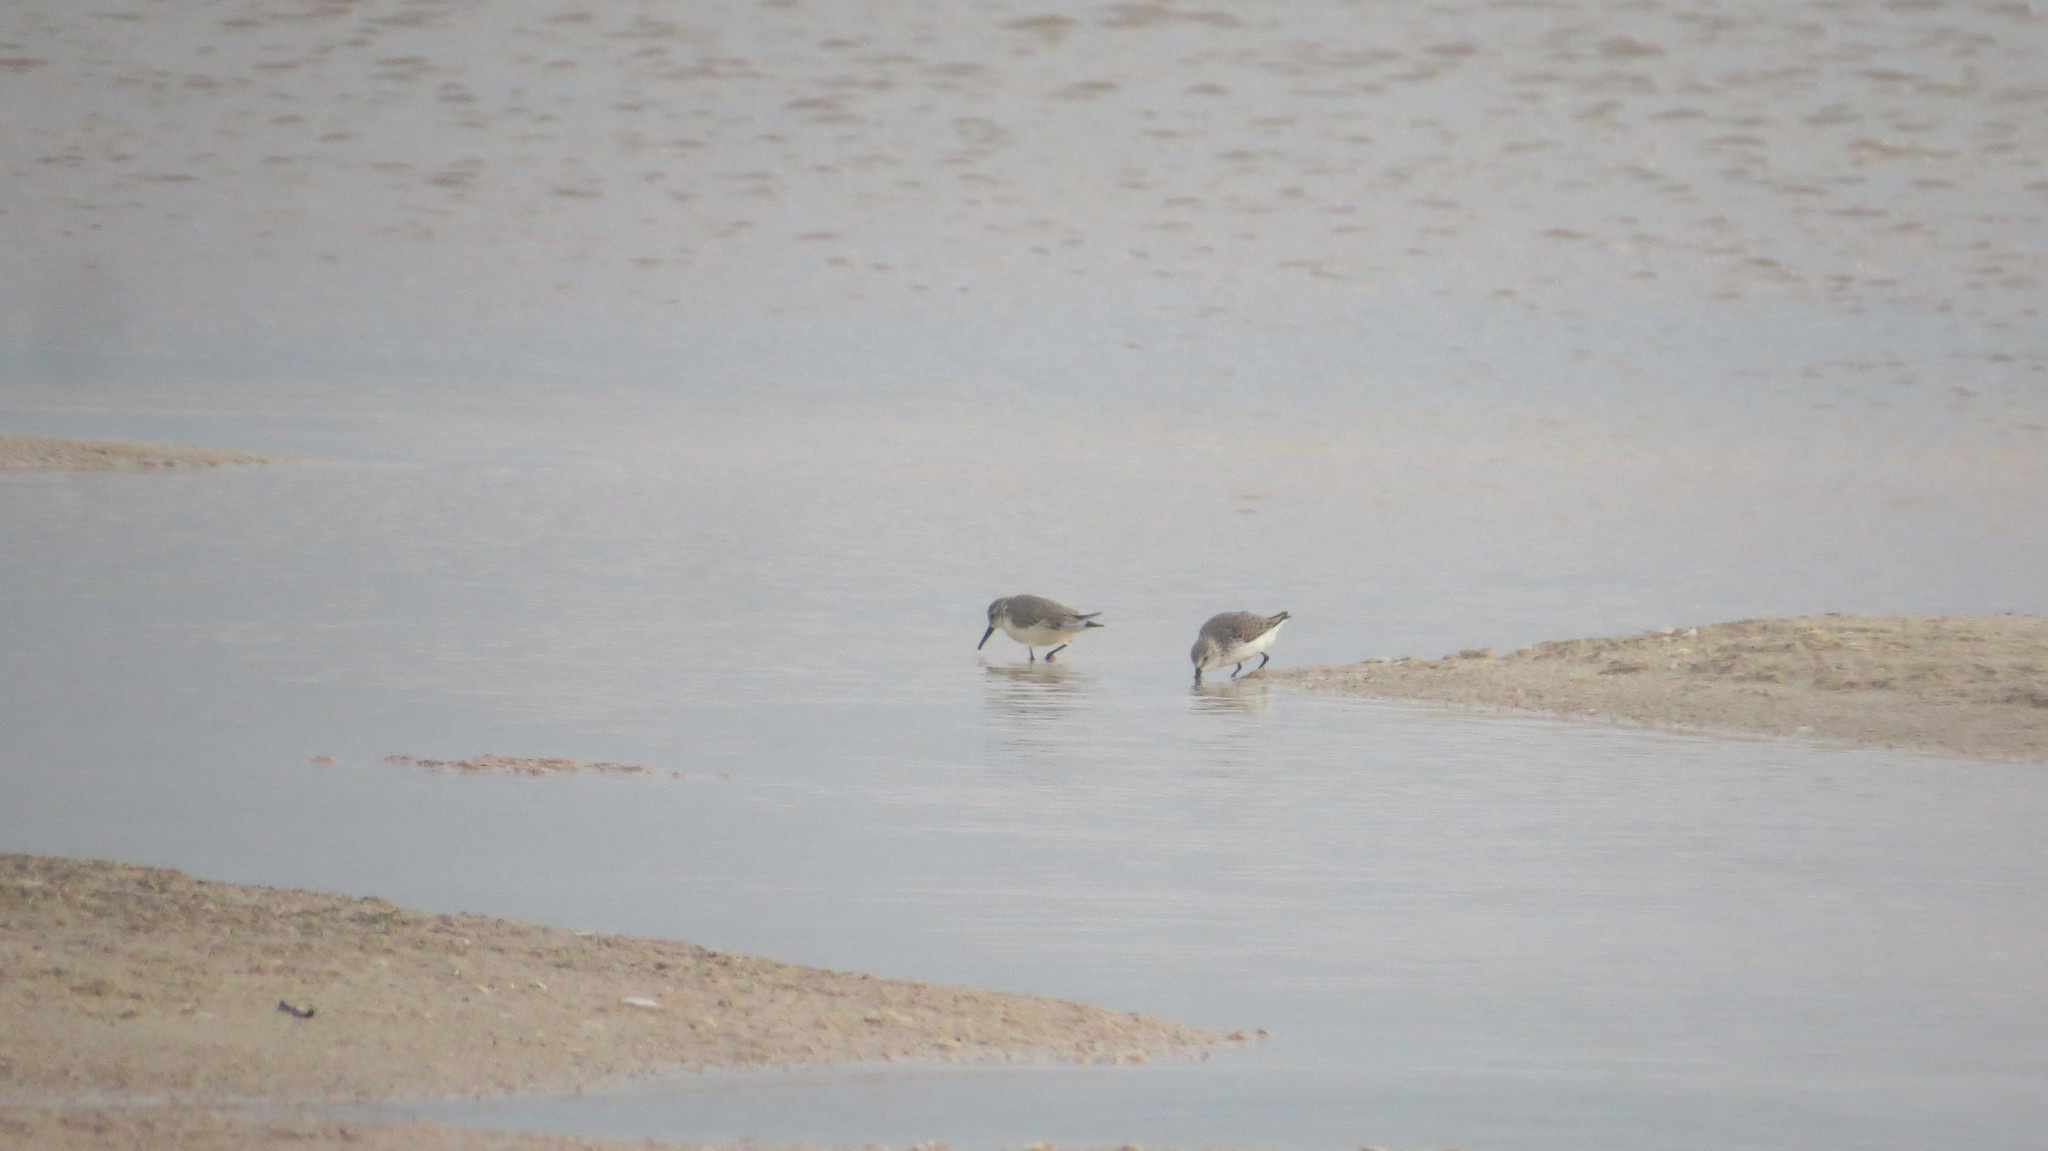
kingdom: Animalia
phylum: Chordata
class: Aves
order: Charadriiformes
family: Scolopacidae
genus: Calidris
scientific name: Calidris mauri
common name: Western sandpiper
